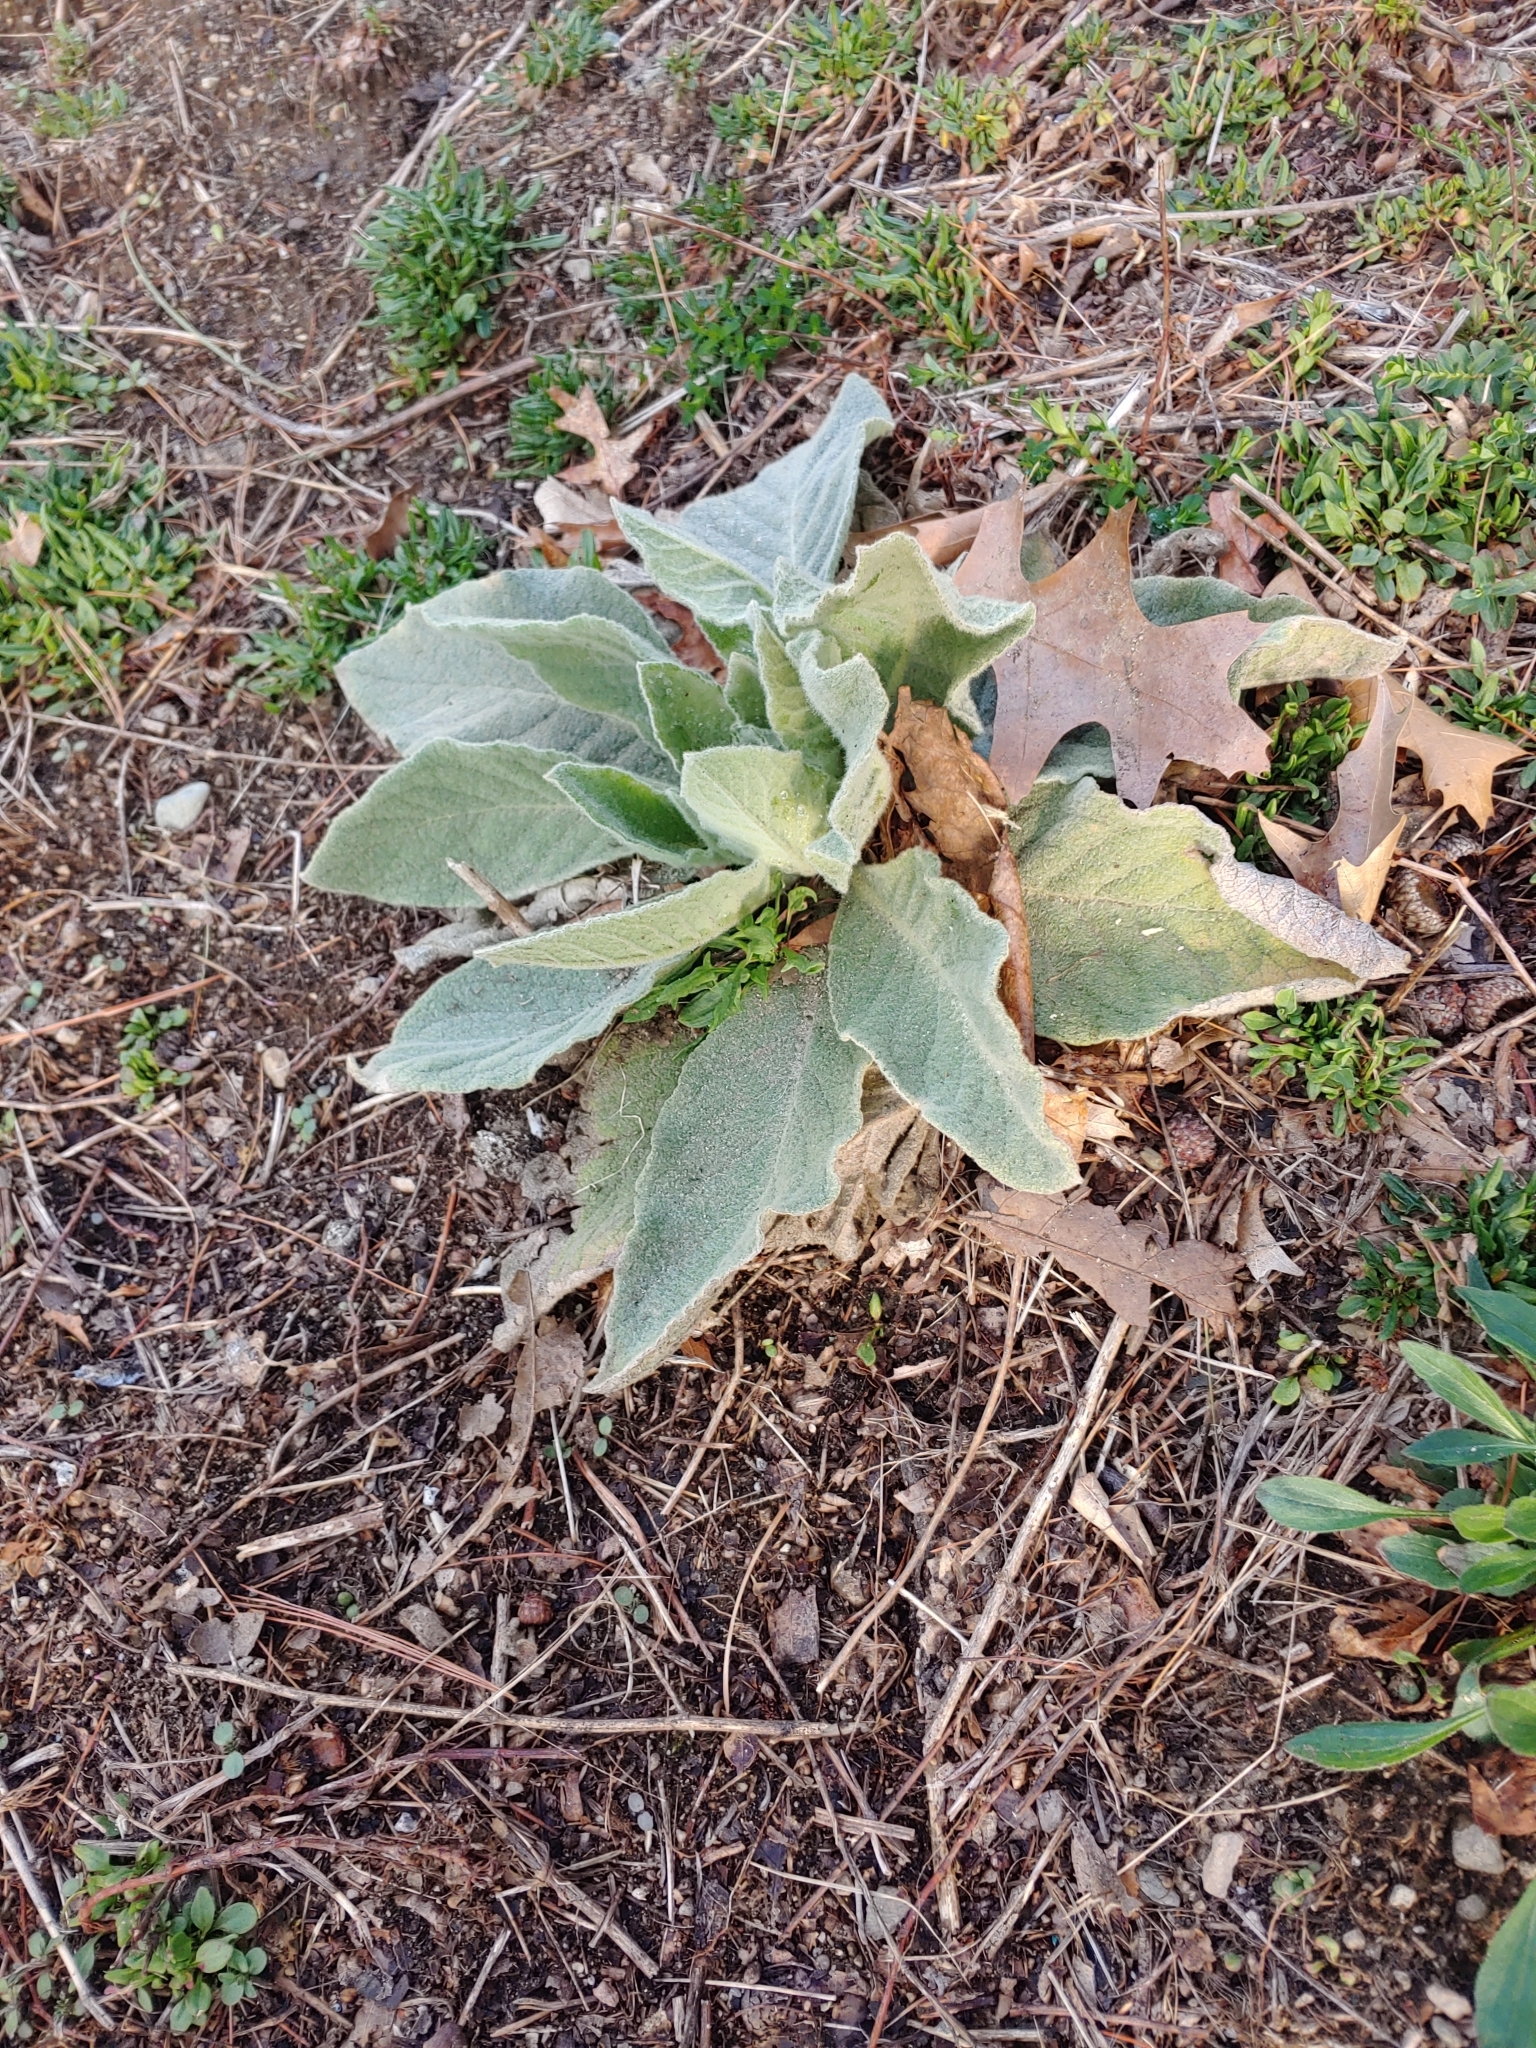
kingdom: Plantae
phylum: Tracheophyta
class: Magnoliopsida
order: Lamiales
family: Scrophulariaceae
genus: Verbascum
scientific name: Verbascum thapsus
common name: Common mullein
